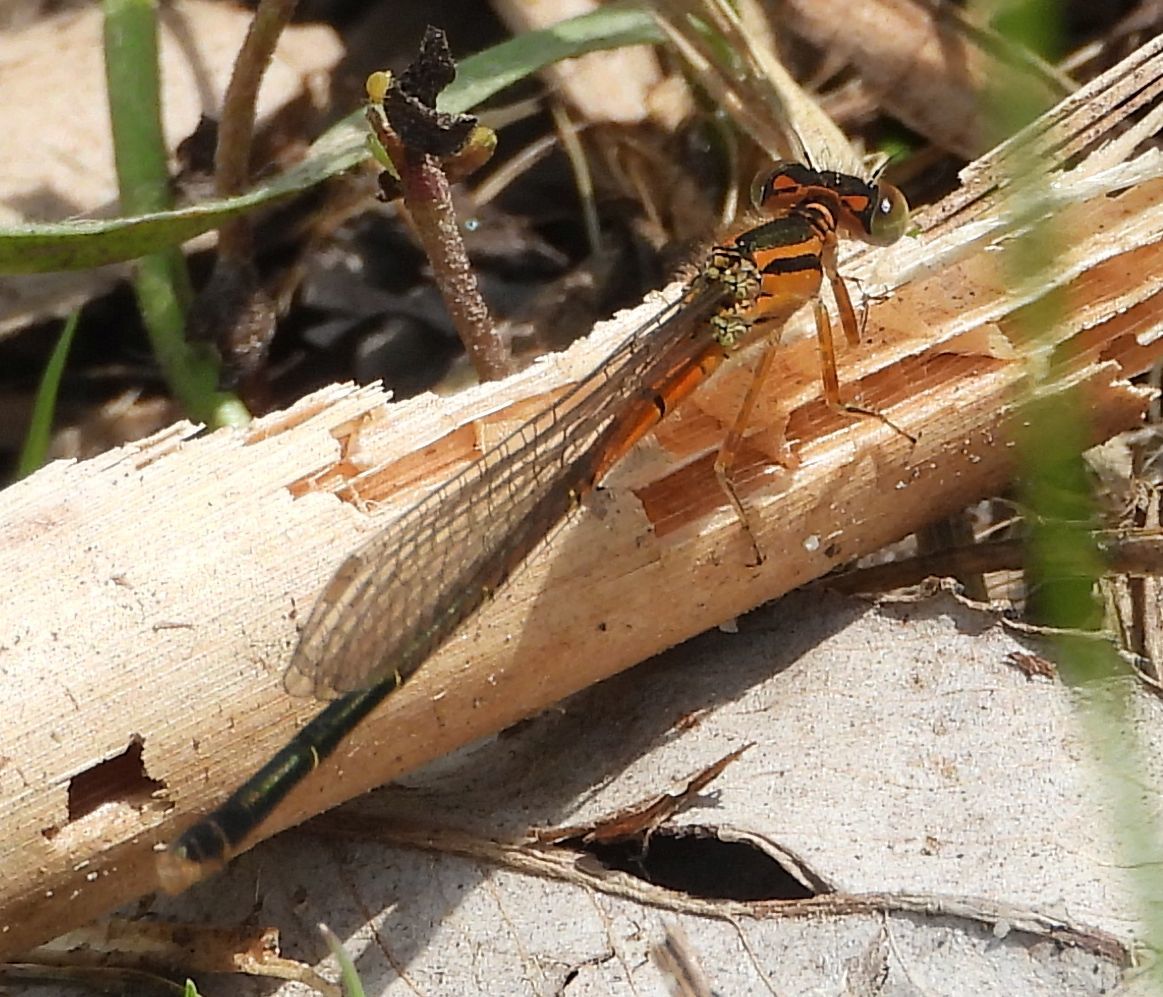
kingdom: Animalia
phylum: Arthropoda
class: Insecta
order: Odonata
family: Coenagrionidae
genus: Ischnura
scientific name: Ischnura verticalis
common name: Eastern forktail
